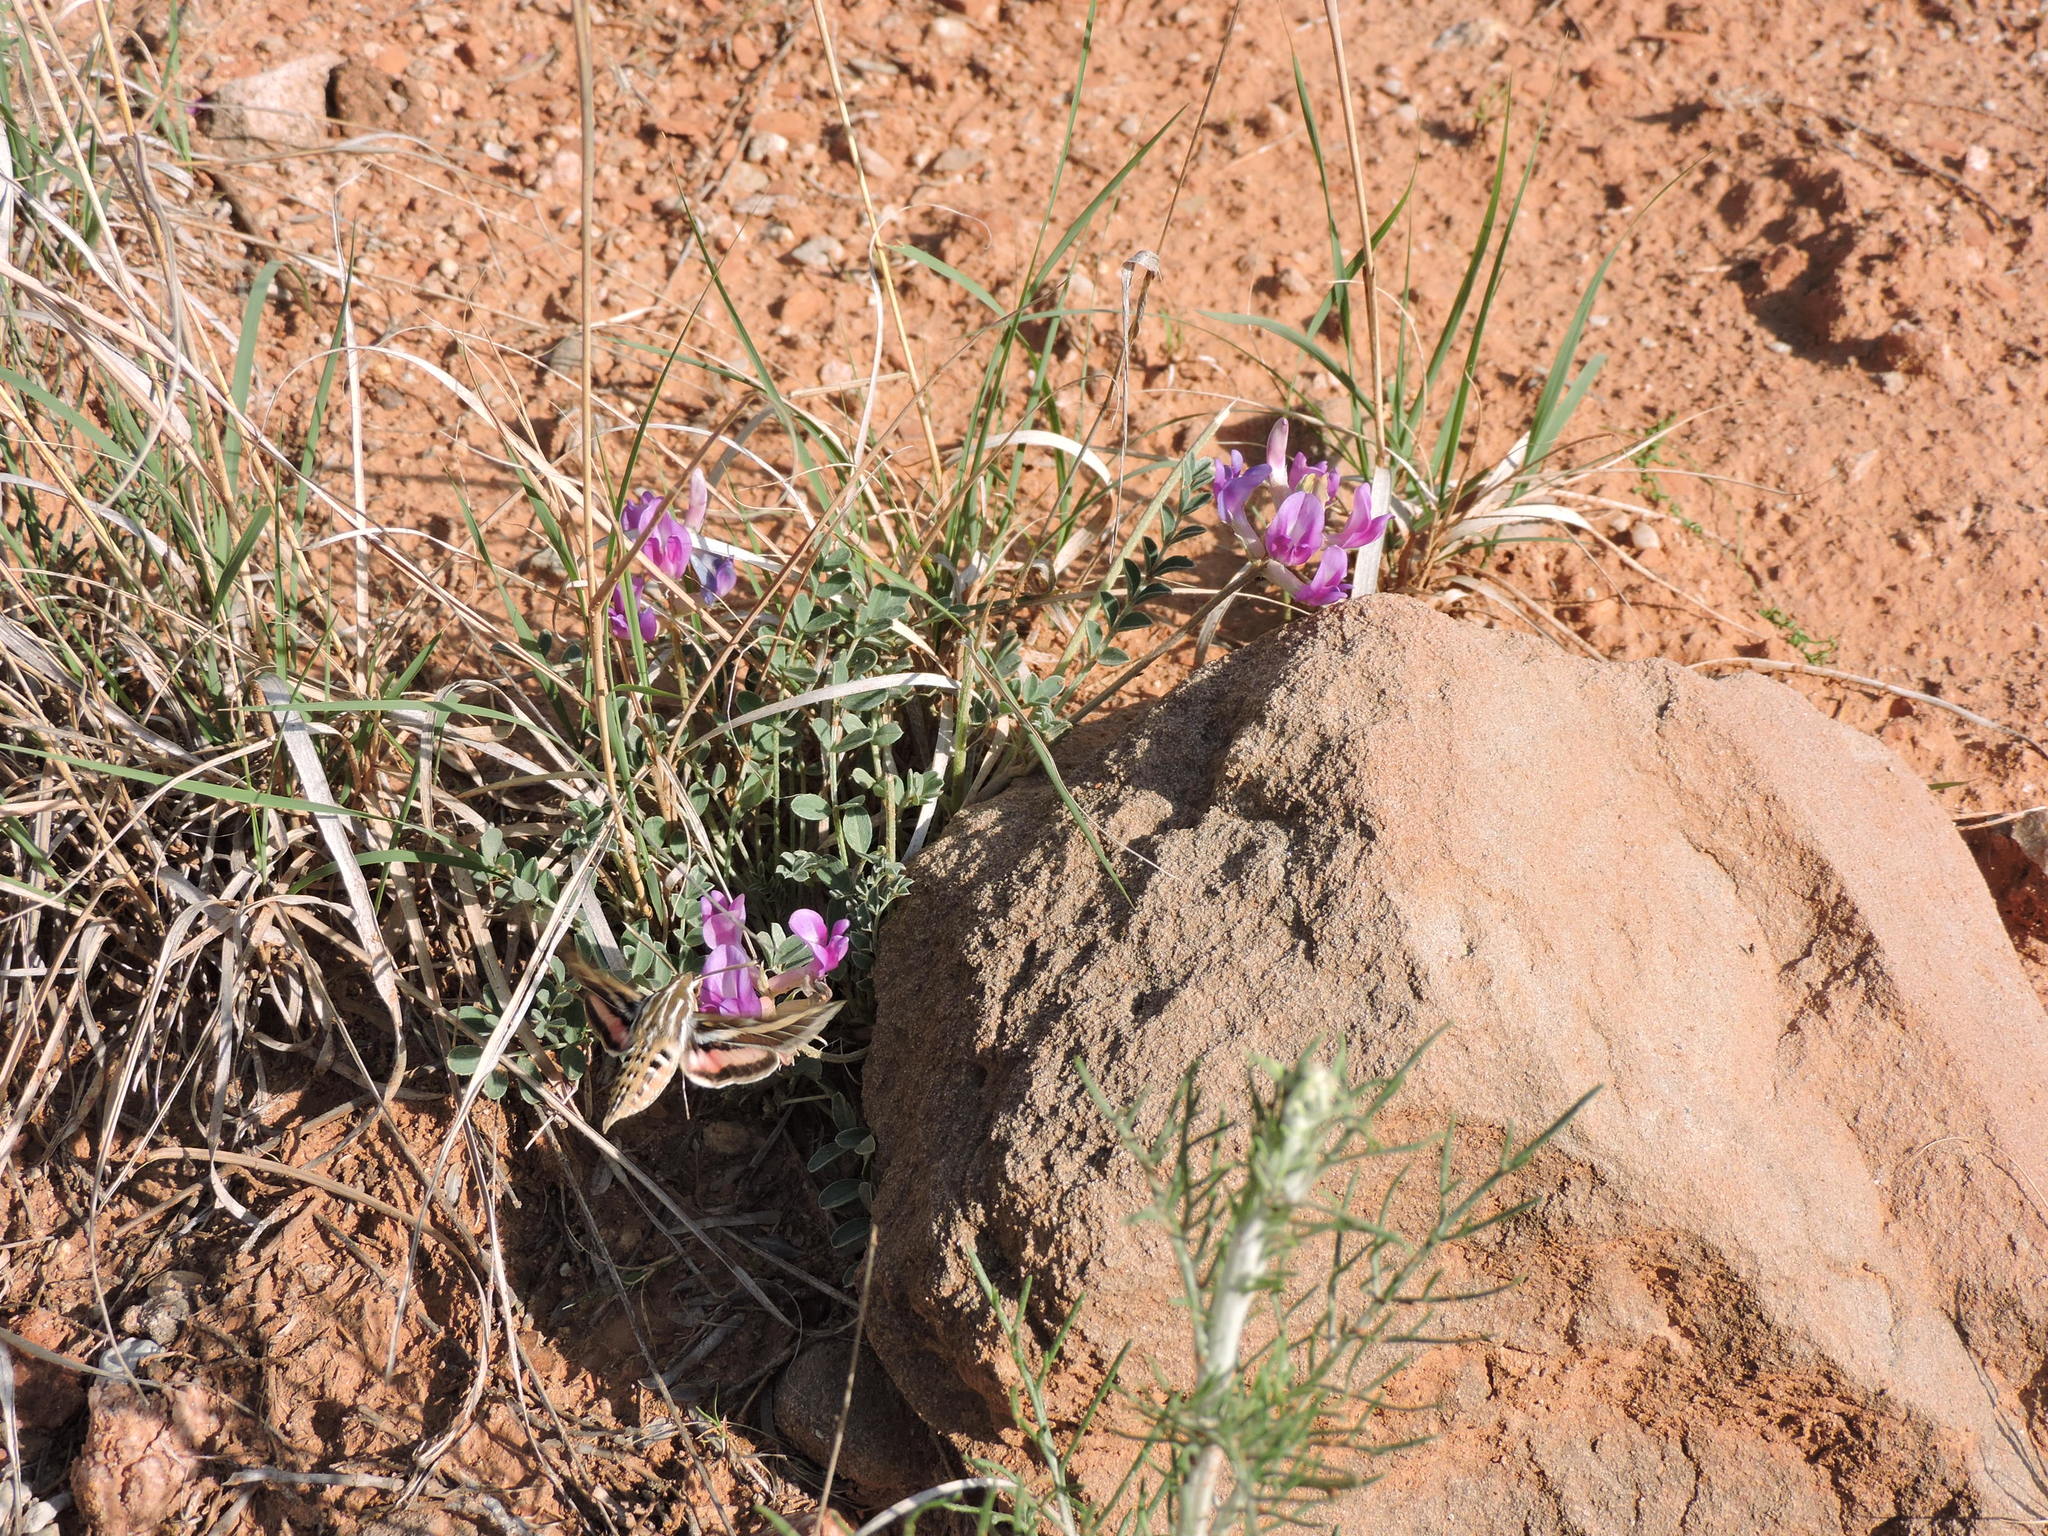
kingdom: Animalia
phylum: Arthropoda
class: Insecta
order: Lepidoptera
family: Sphingidae
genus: Hyles
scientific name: Hyles lineata
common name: White-lined sphinx
